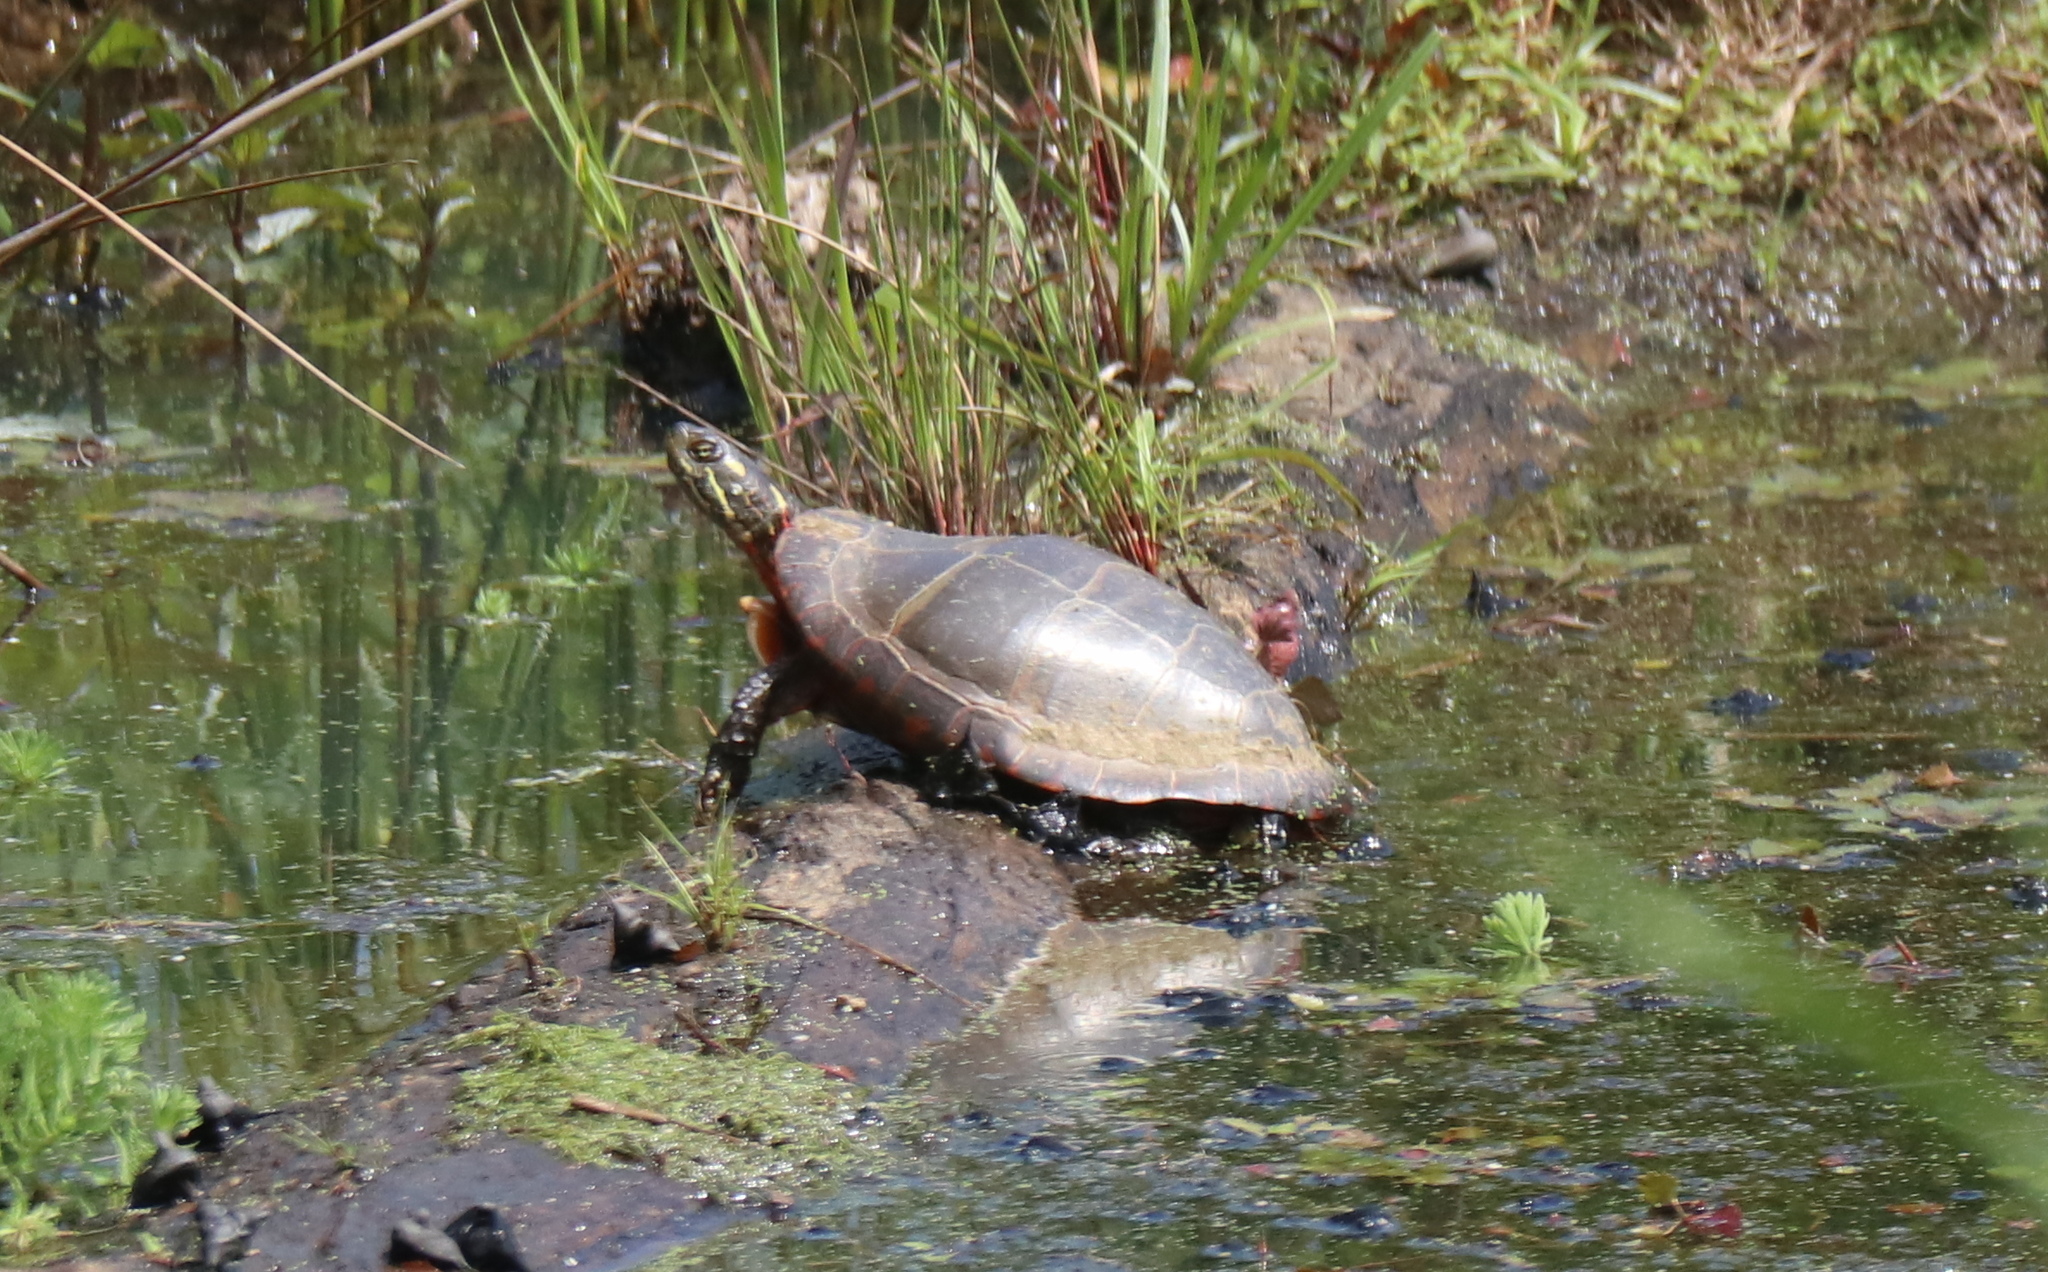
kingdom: Animalia
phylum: Chordata
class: Testudines
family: Emydidae
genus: Chrysemys
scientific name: Chrysemys picta
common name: Painted turtle
